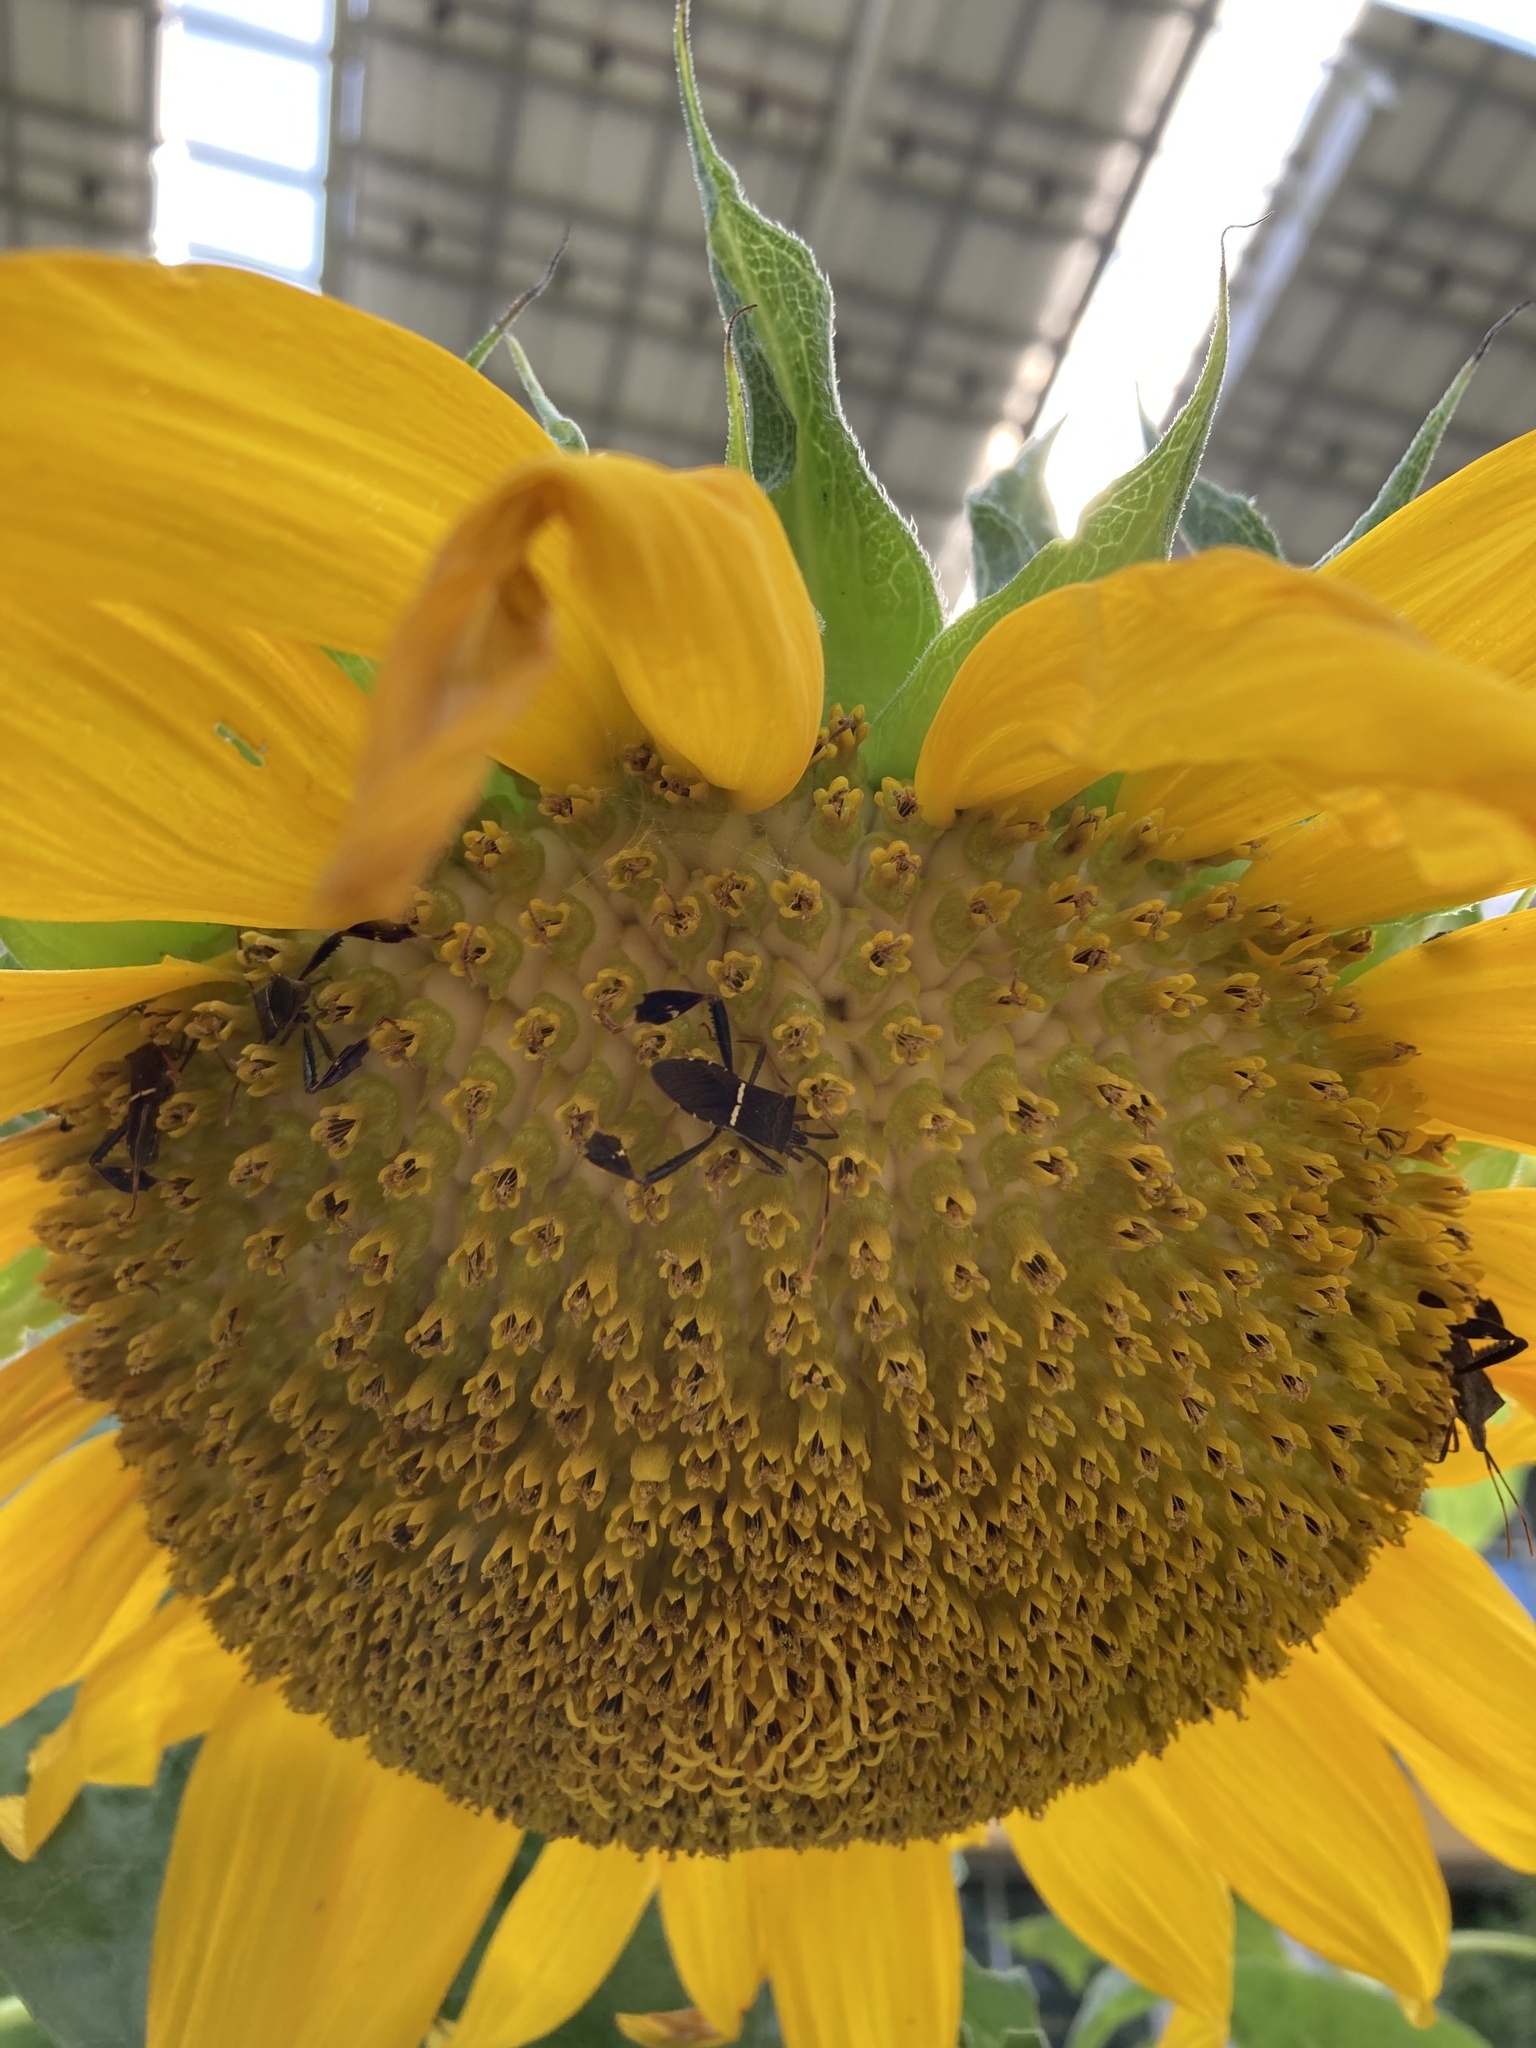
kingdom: Animalia
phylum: Arthropoda
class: Insecta
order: Hemiptera
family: Coreidae
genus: Leptoglossus
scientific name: Leptoglossus phyllopus
